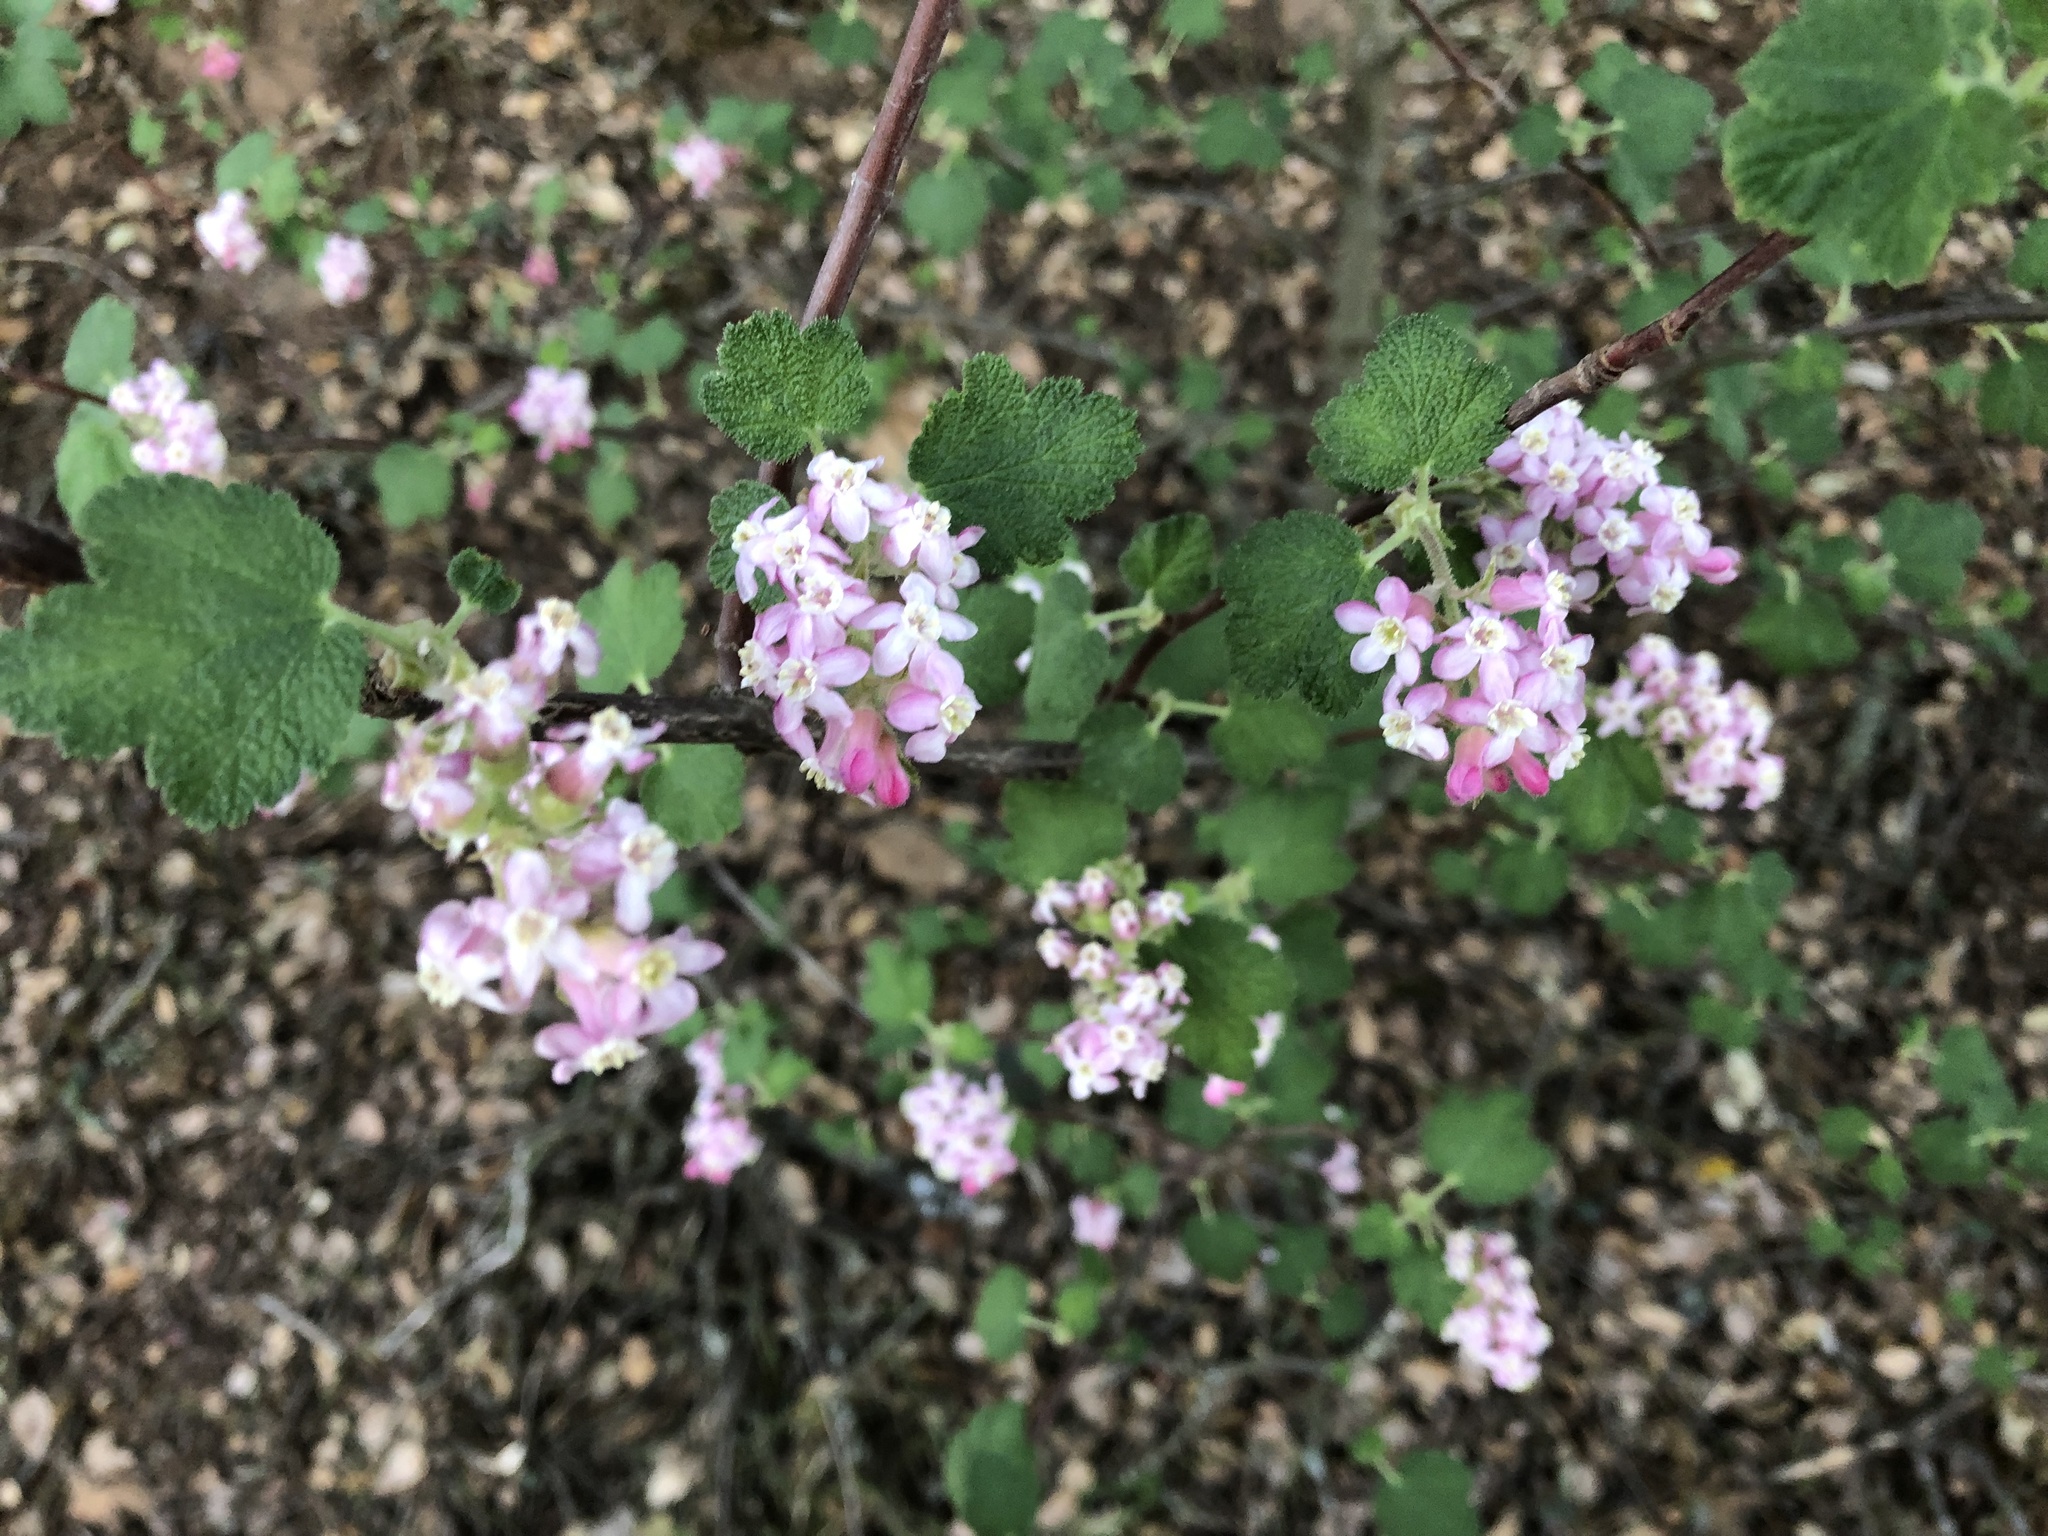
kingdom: Plantae
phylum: Tracheophyta
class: Magnoliopsida
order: Saxifragales
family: Grossulariaceae
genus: Ribes
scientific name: Ribes malvaceum
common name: Chaparral currant
